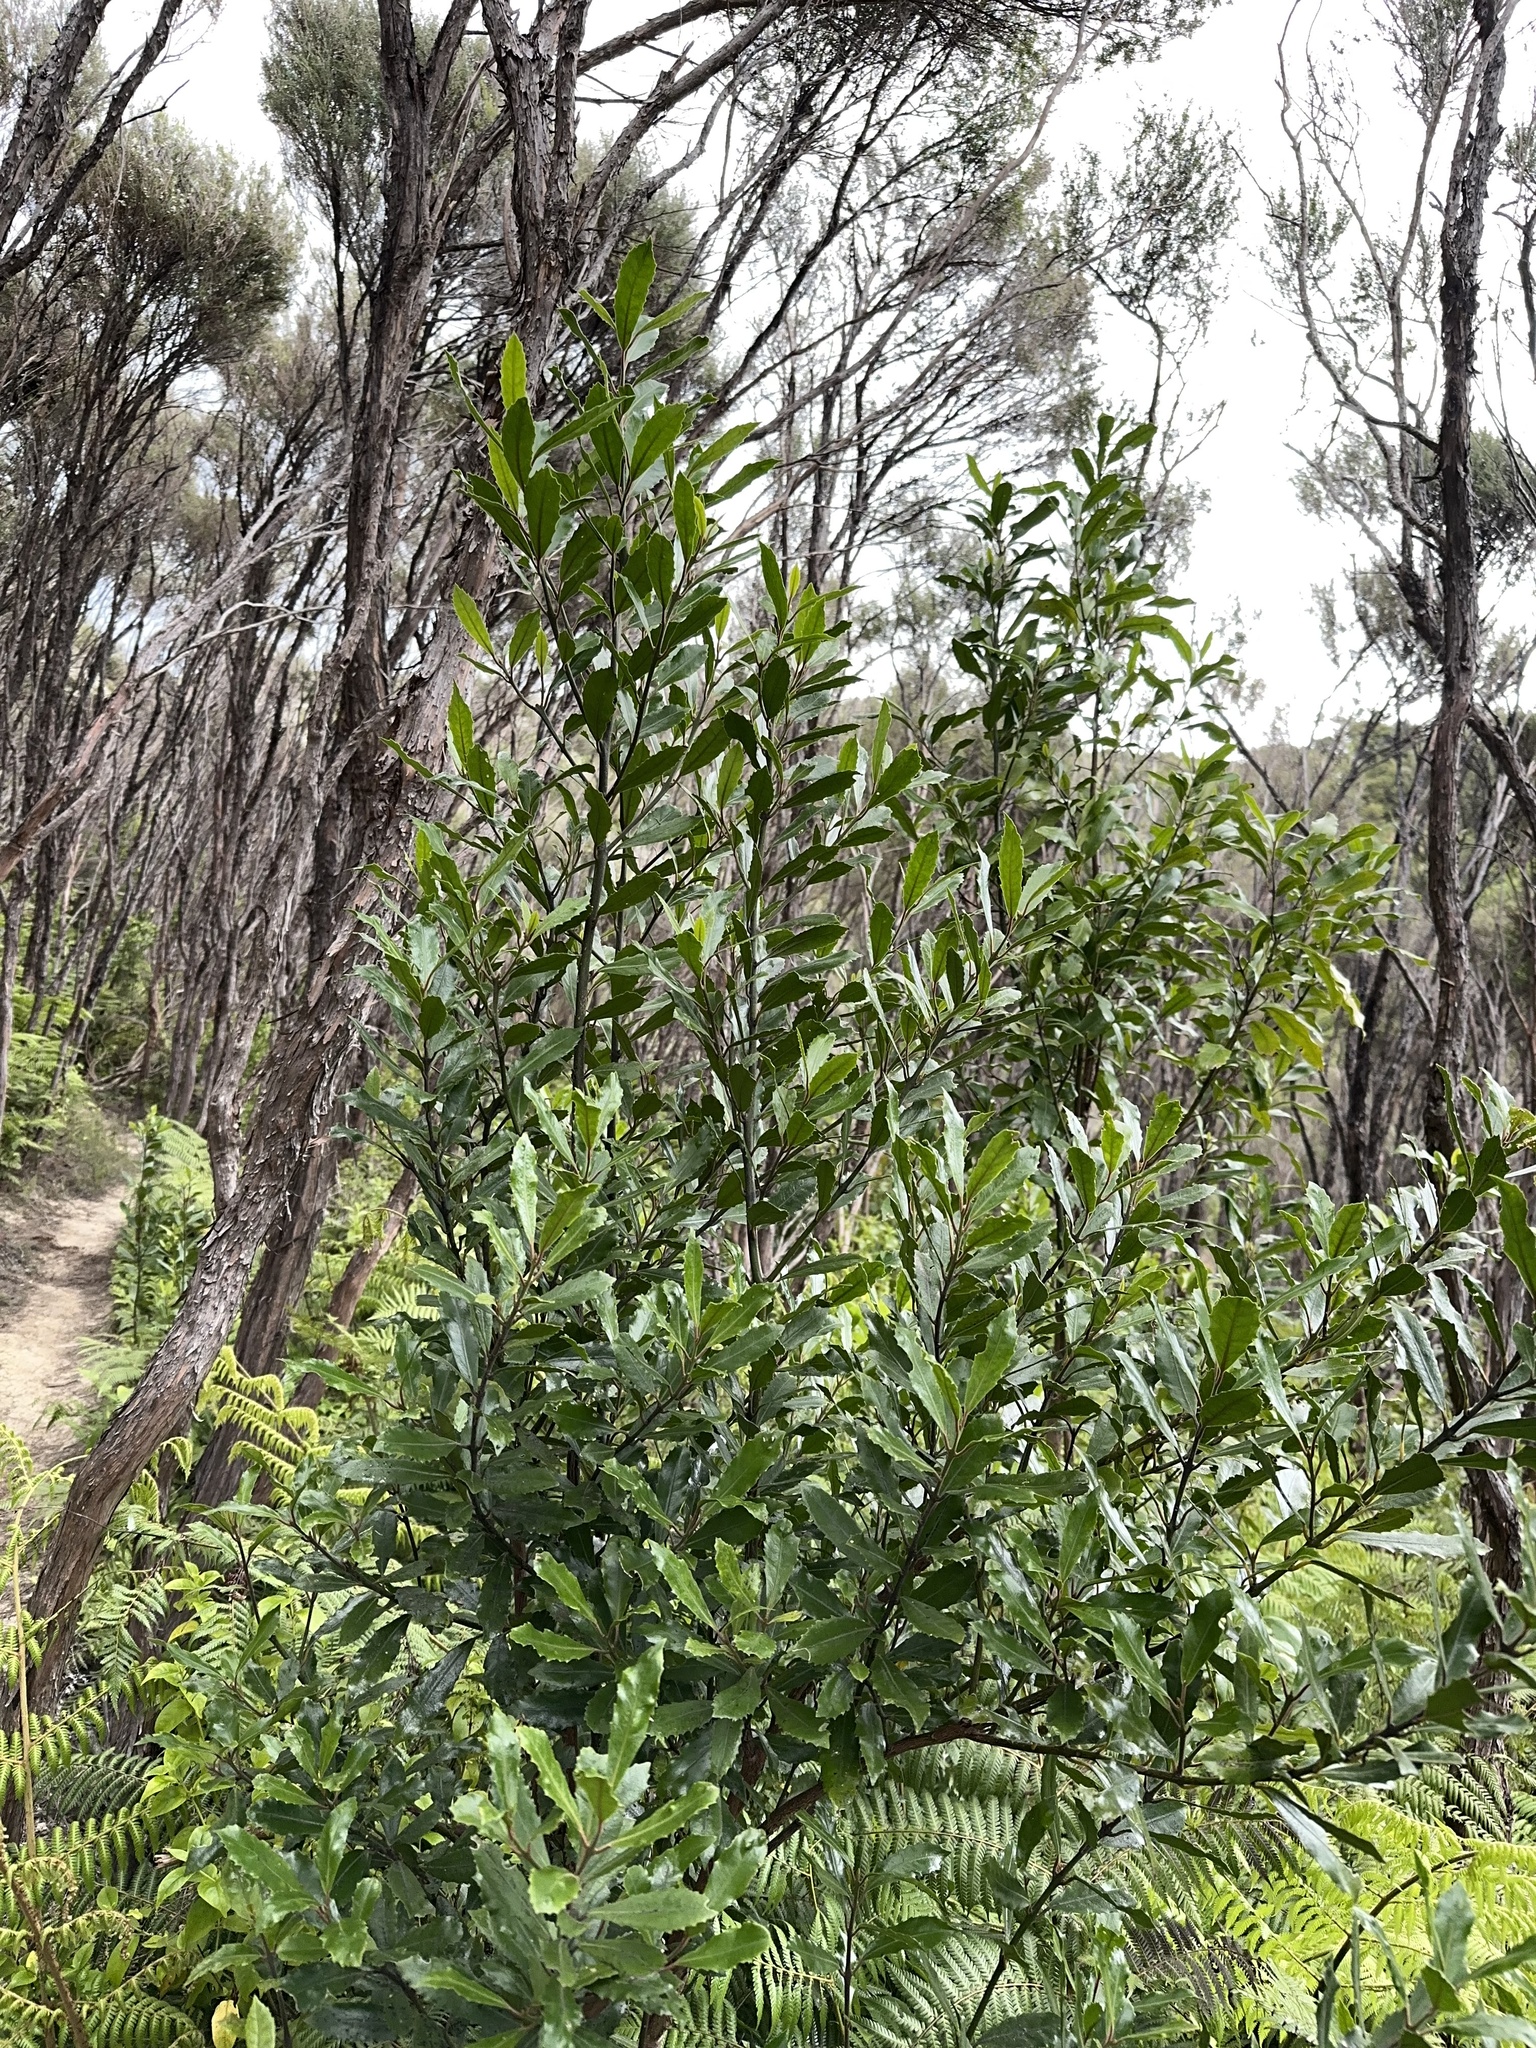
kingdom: Plantae
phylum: Tracheophyta
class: Magnoliopsida
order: Laurales
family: Monimiaceae
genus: Hedycarya
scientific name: Hedycarya arborea
